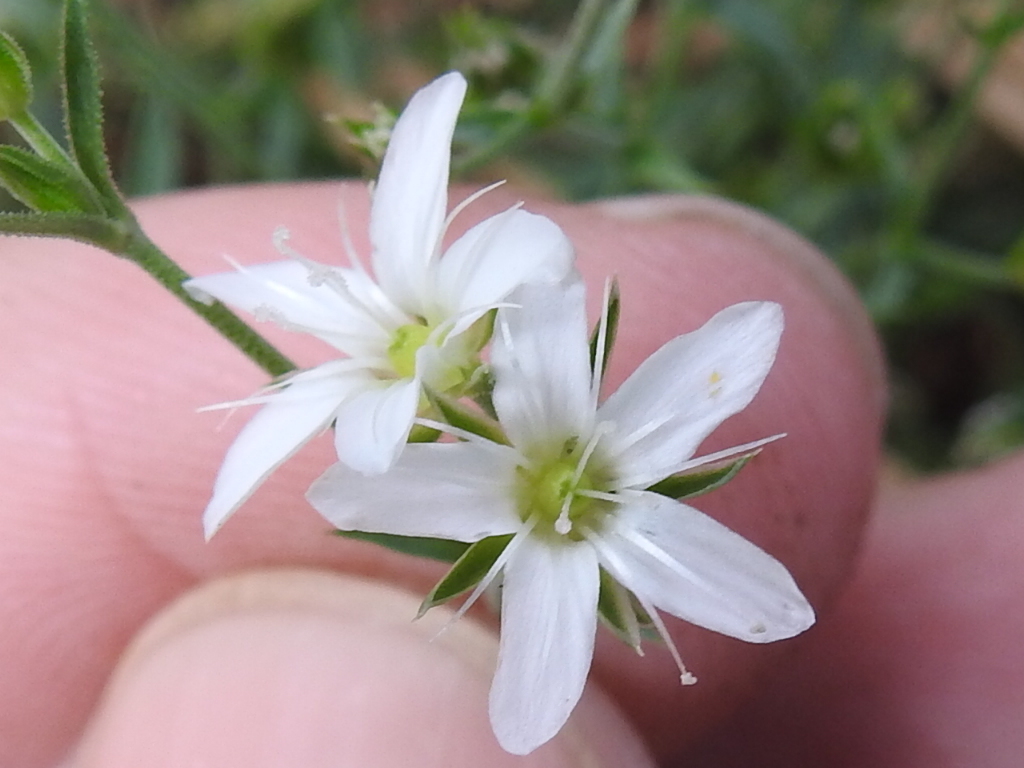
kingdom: Plantae
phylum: Tracheophyta
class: Magnoliopsida
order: Caryophyllales
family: Caryophyllaceae
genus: Arenaria
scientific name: Arenaria lanuginosa
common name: Spread sandwort
